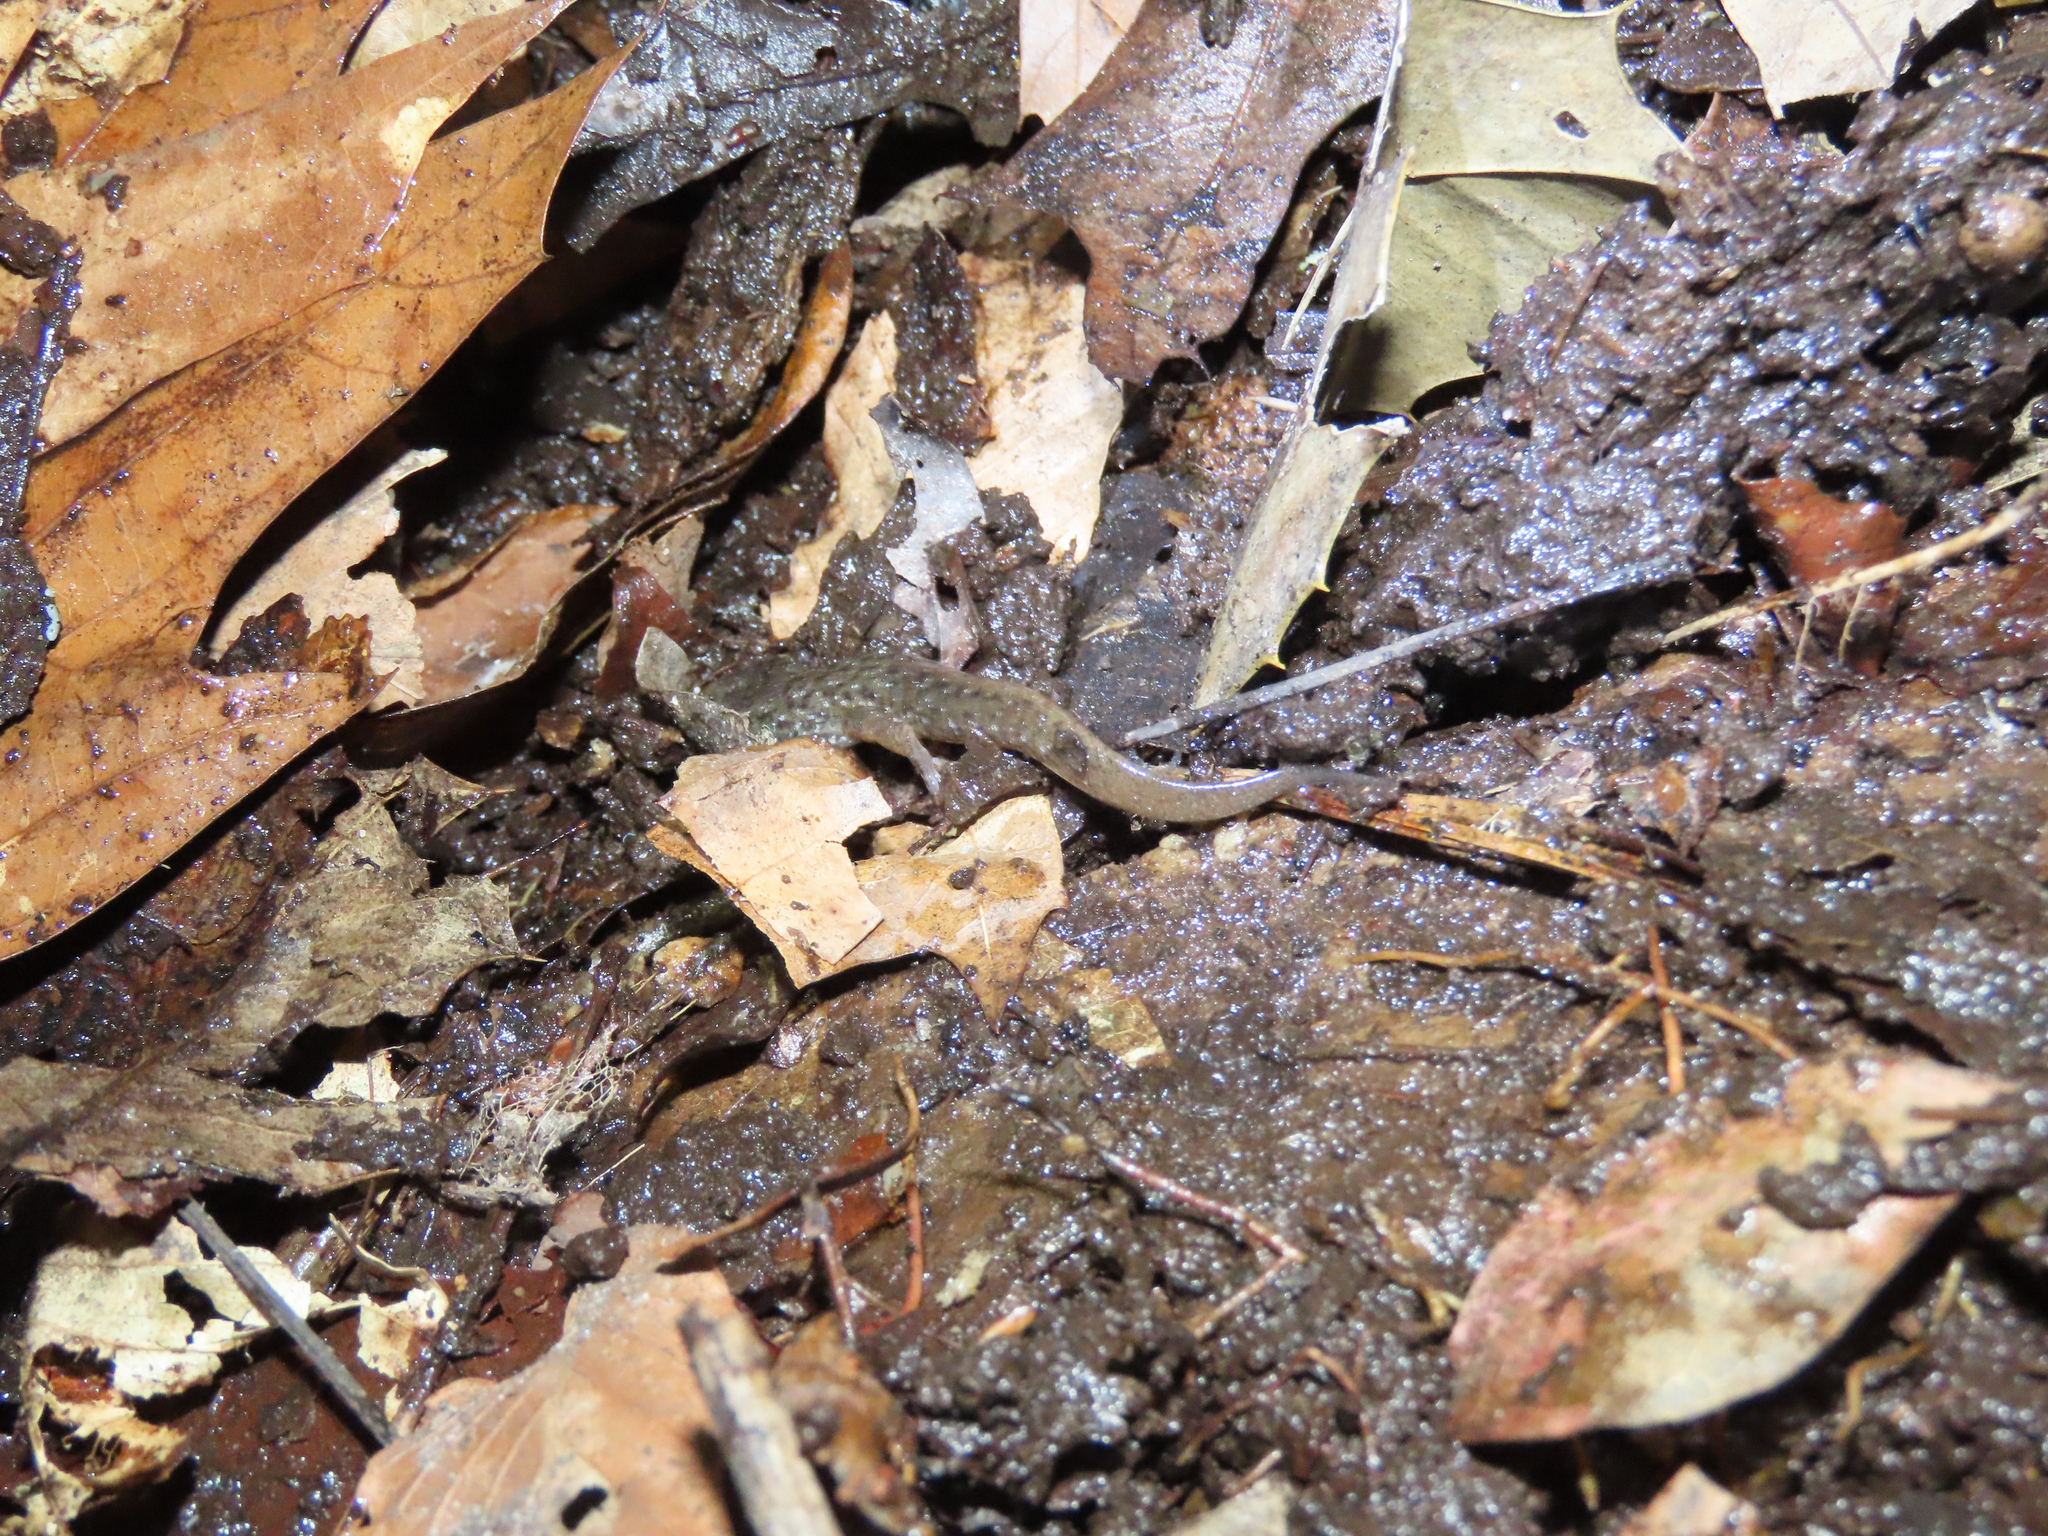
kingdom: Animalia
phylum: Chordata
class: Amphibia
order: Caudata
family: Plethodontidae
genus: Desmognathus
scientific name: Desmognathus fuscus
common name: Northern dusky salamander
